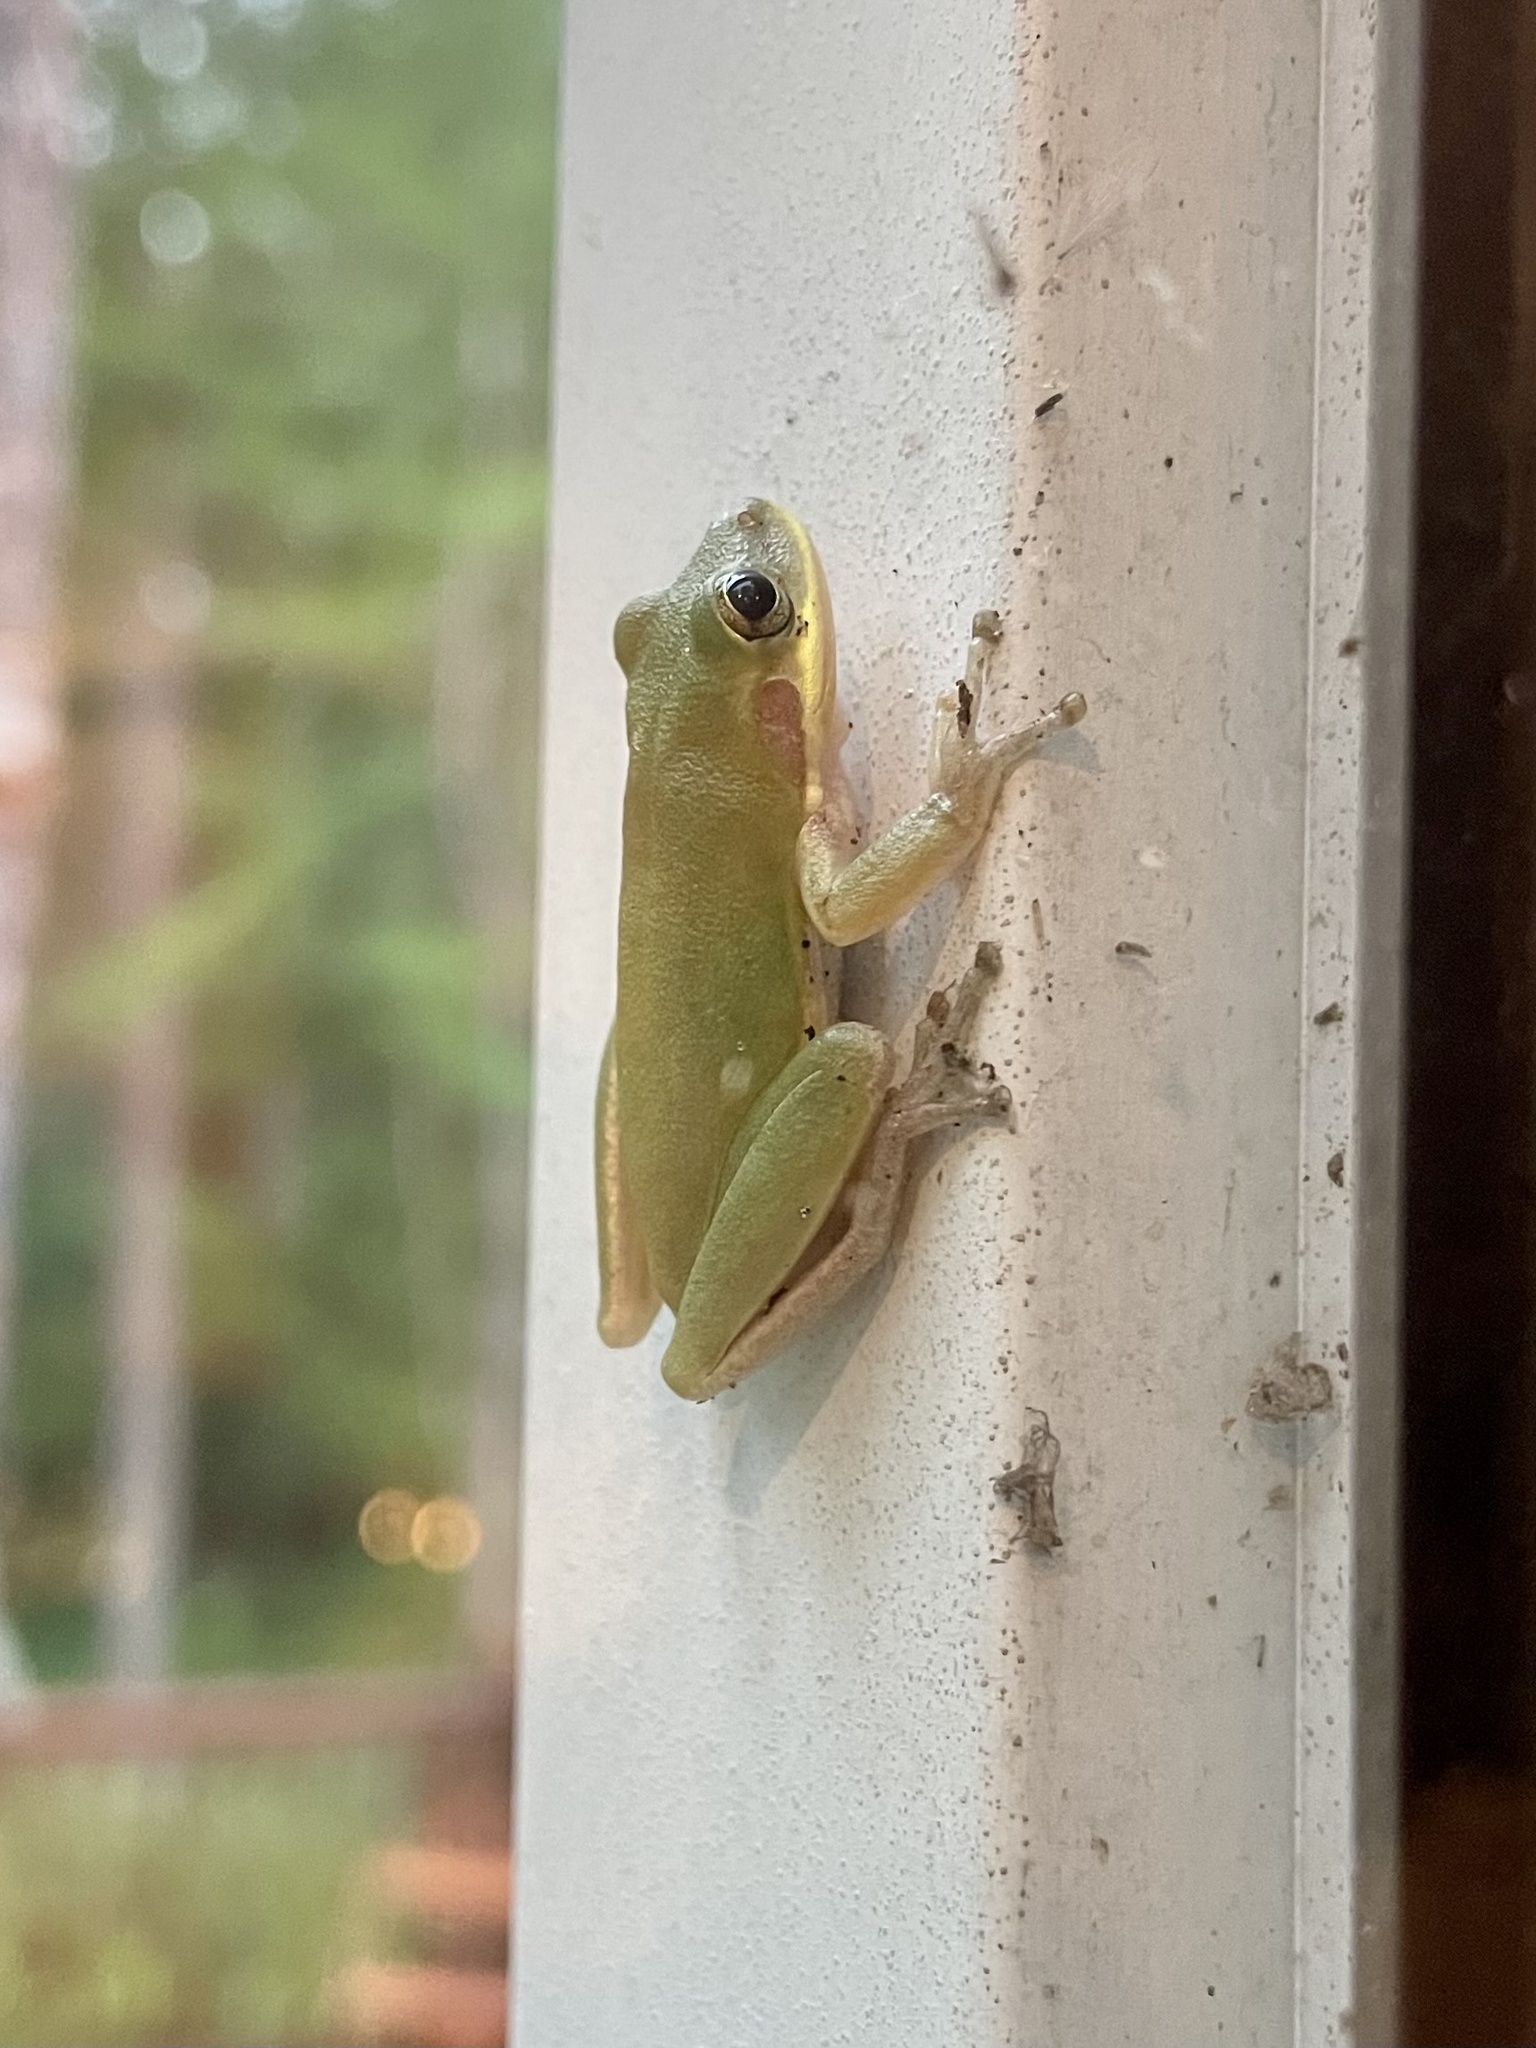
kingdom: Animalia
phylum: Chordata
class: Amphibia
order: Anura
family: Hylidae
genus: Dryophytes
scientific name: Dryophytes squirellus
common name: Squirrel treefrog
